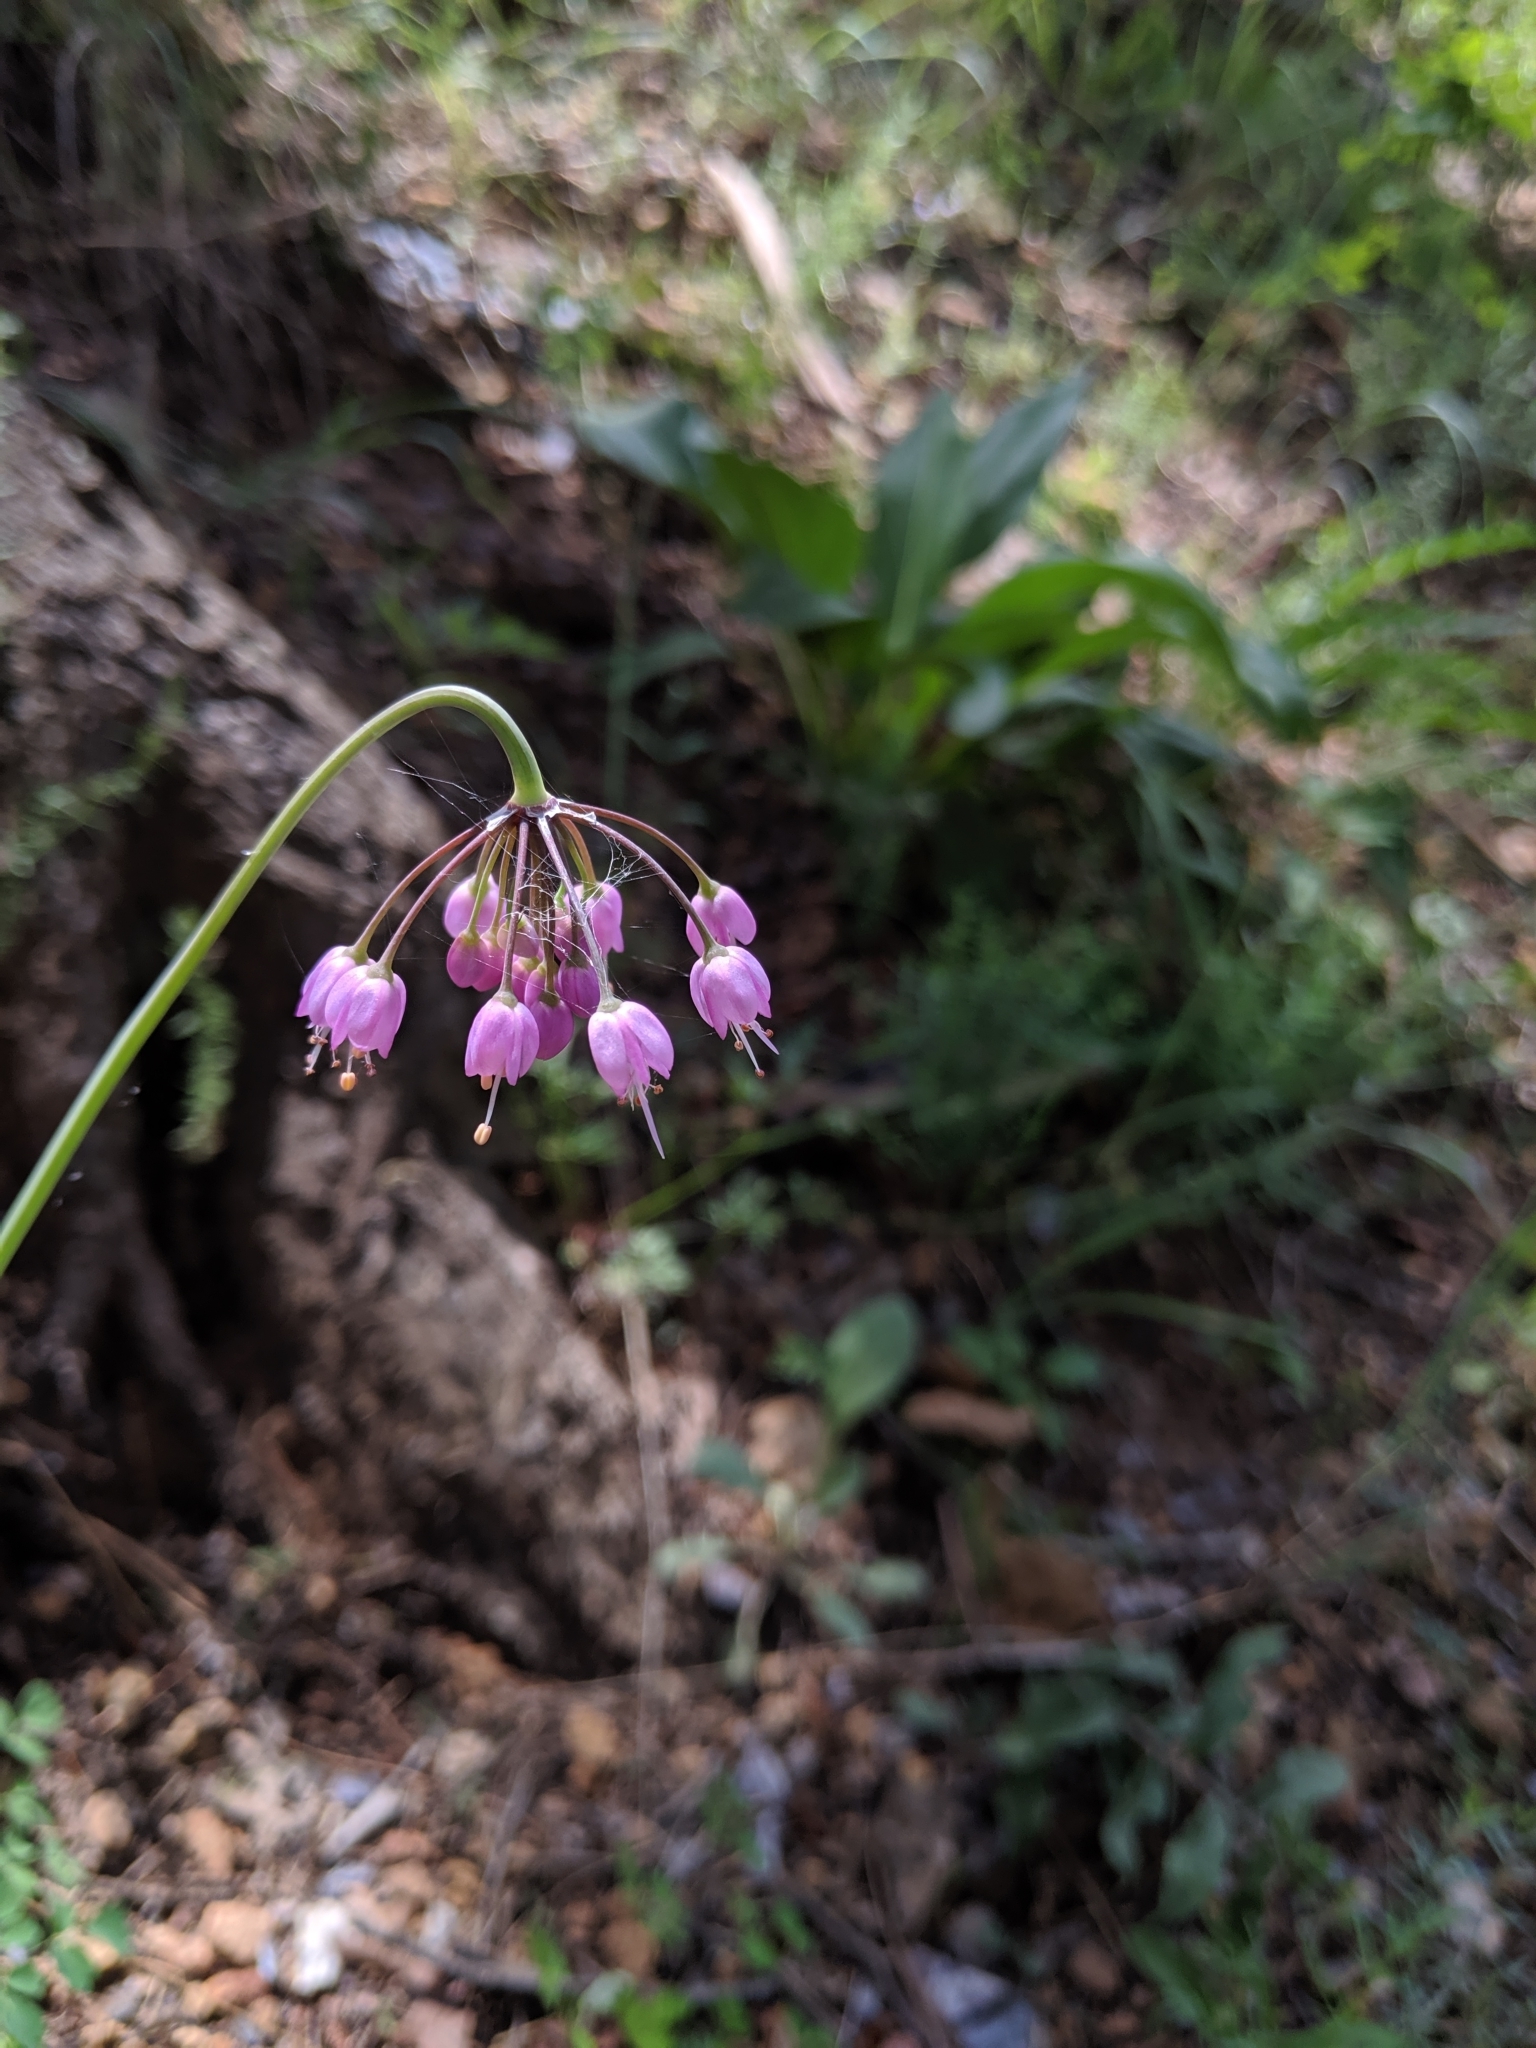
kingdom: Plantae
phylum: Tracheophyta
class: Liliopsida
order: Asparagales
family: Amaryllidaceae
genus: Allium
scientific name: Allium cernuum
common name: Nodding onion
